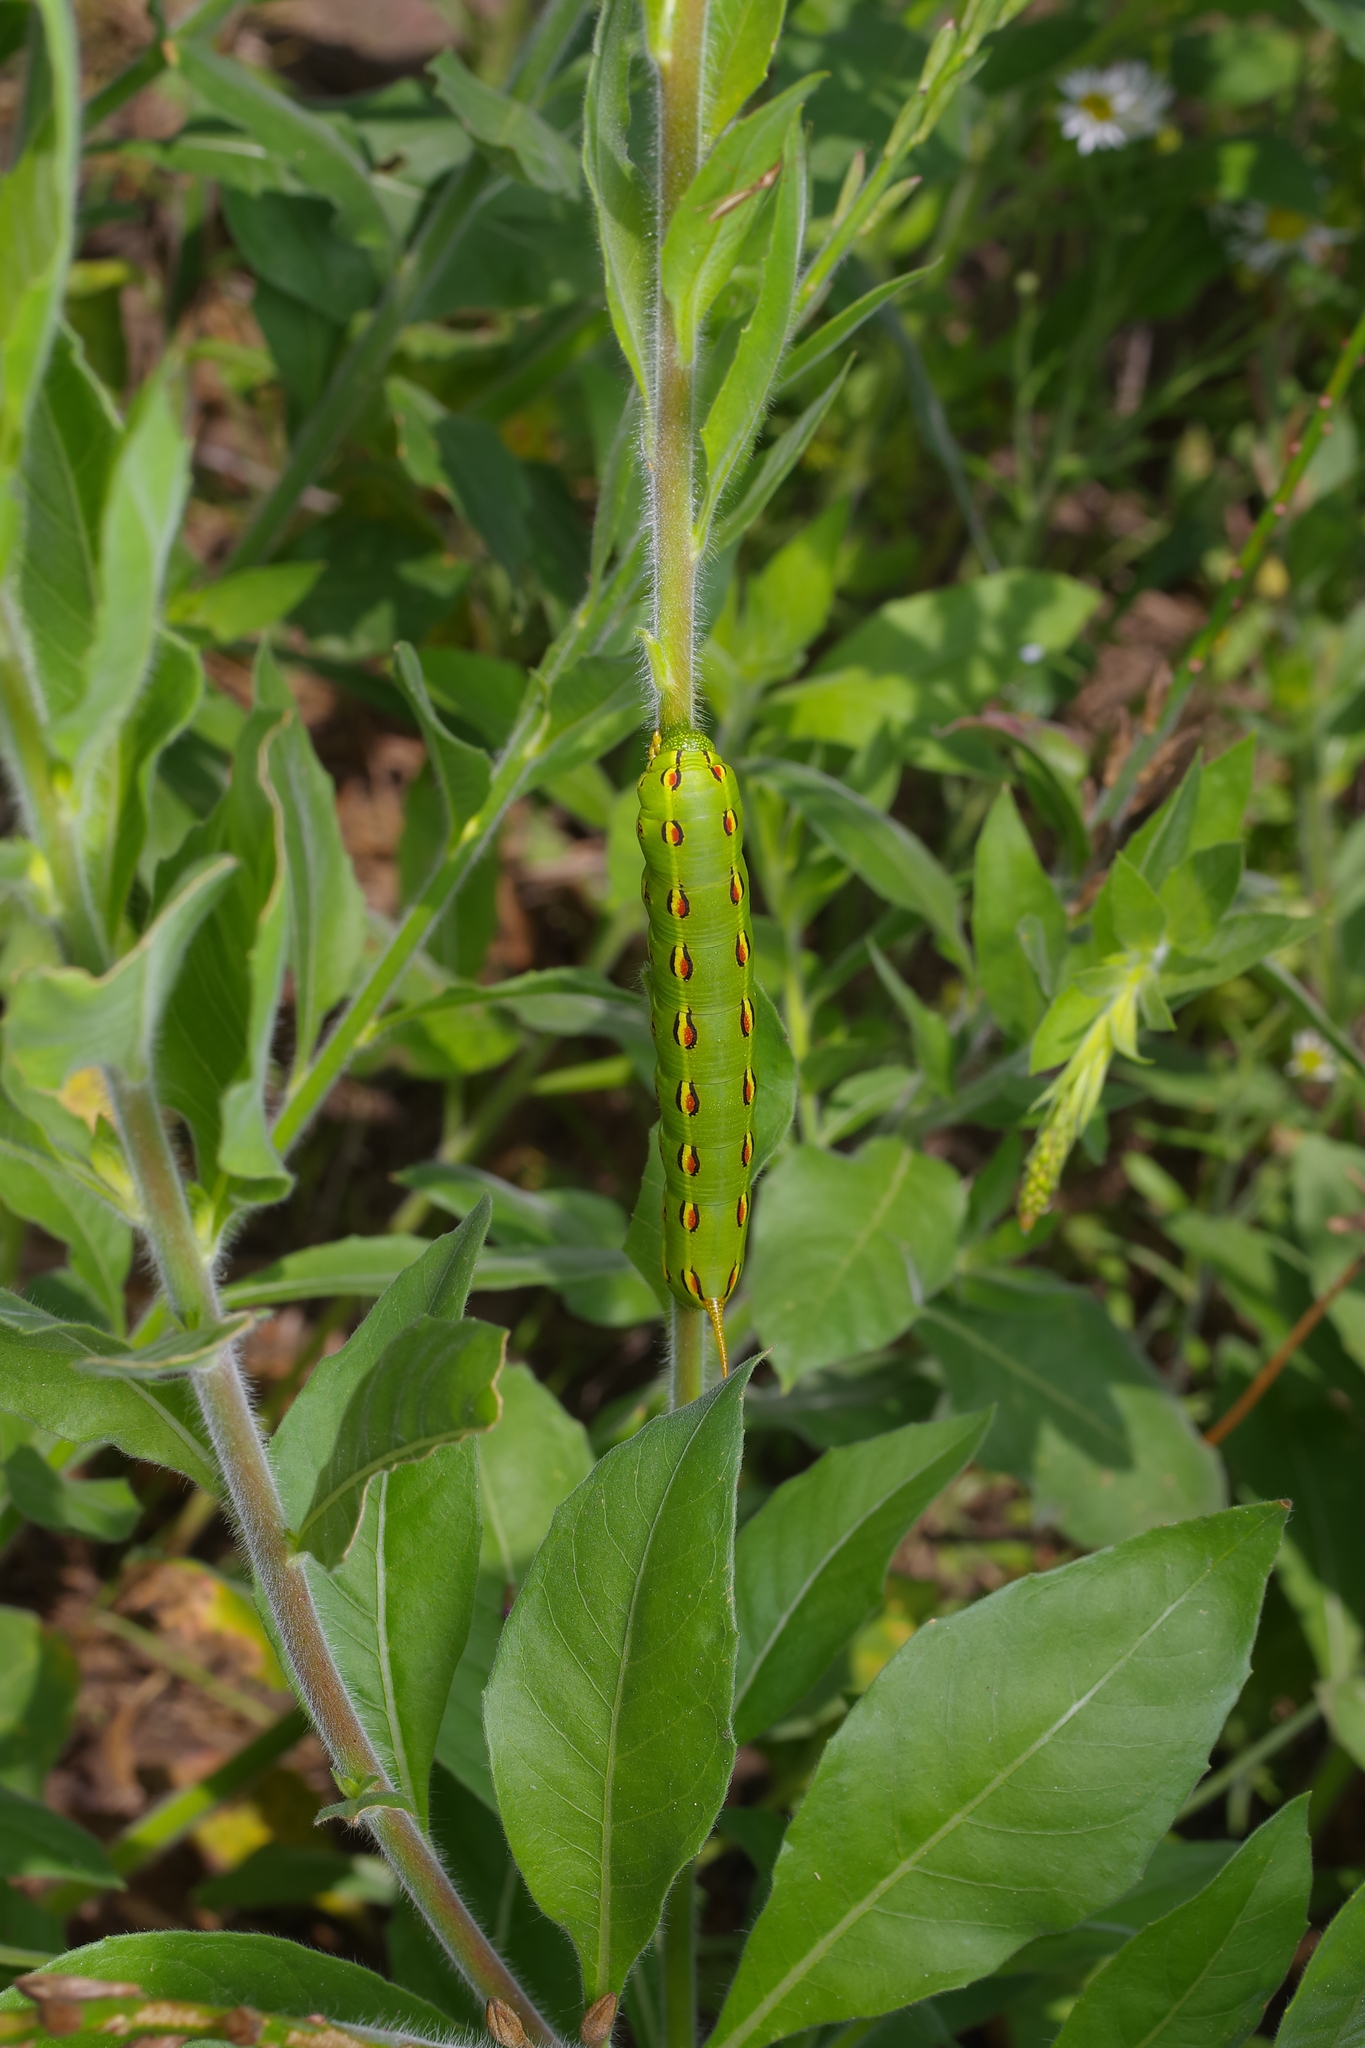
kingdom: Animalia
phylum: Arthropoda
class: Insecta
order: Lepidoptera
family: Sphingidae
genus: Hyles
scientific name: Hyles lineata
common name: White-lined sphinx
